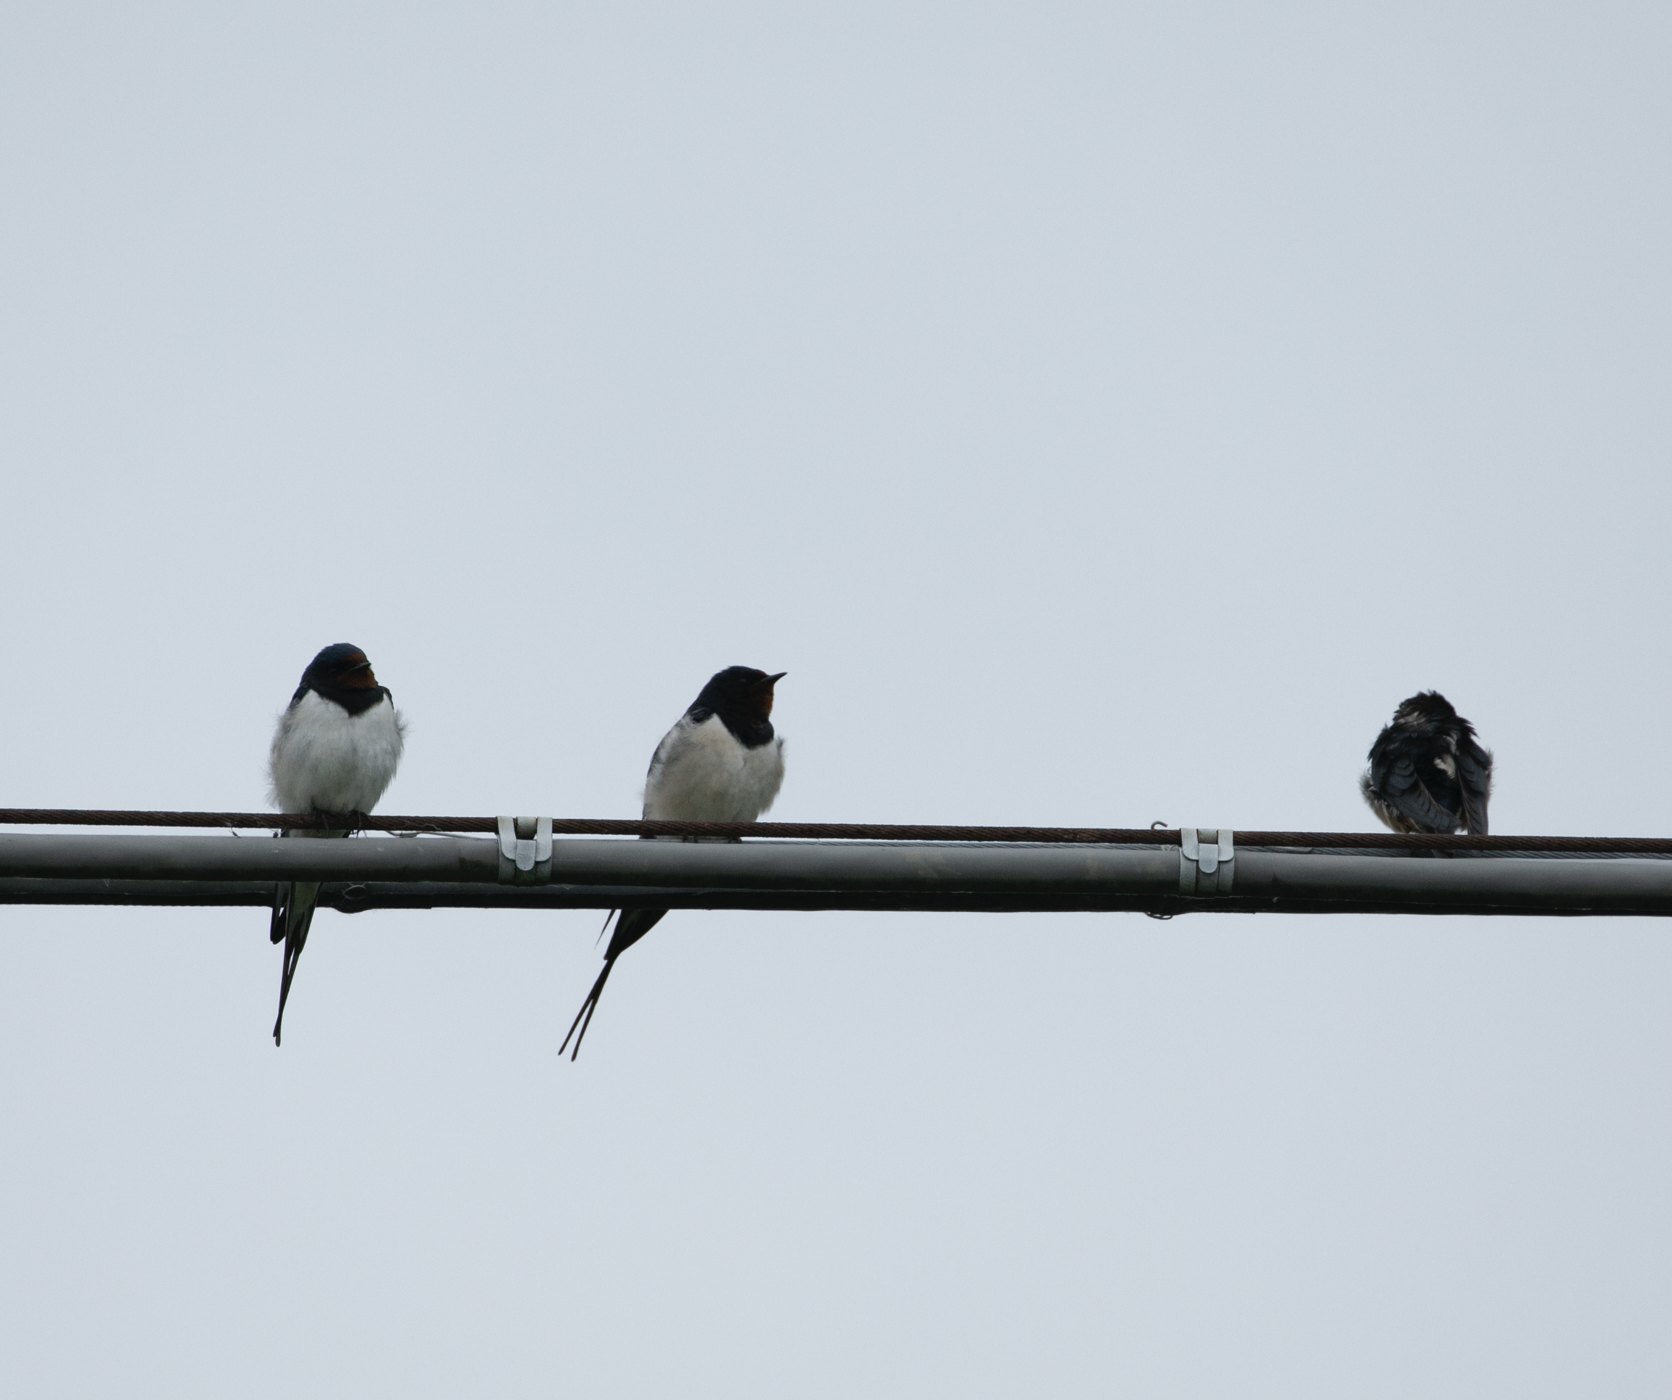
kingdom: Animalia
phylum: Chordata
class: Aves
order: Passeriformes
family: Hirundinidae
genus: Hirundo
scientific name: Hirundo rustica
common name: Barn swallow
